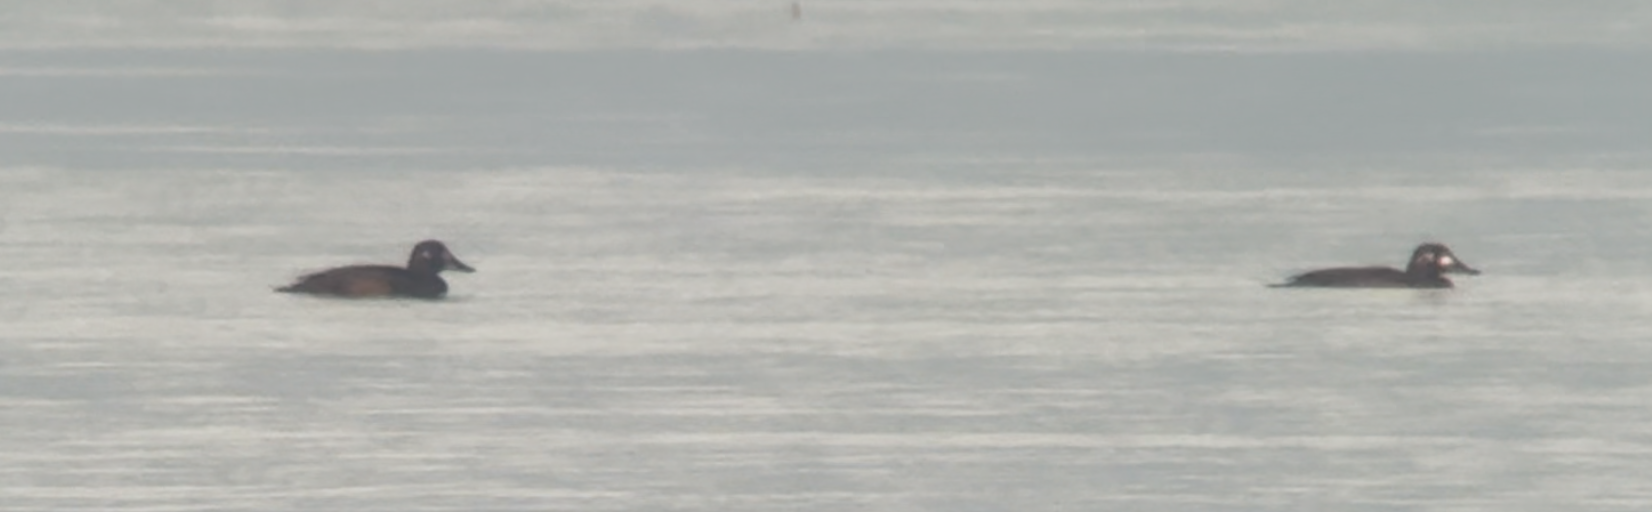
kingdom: Animalia
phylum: Chordata
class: Aves
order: Anseriformes
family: Anatidae
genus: Melanitta
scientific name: Melanitta fusca
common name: Velvet scoter
